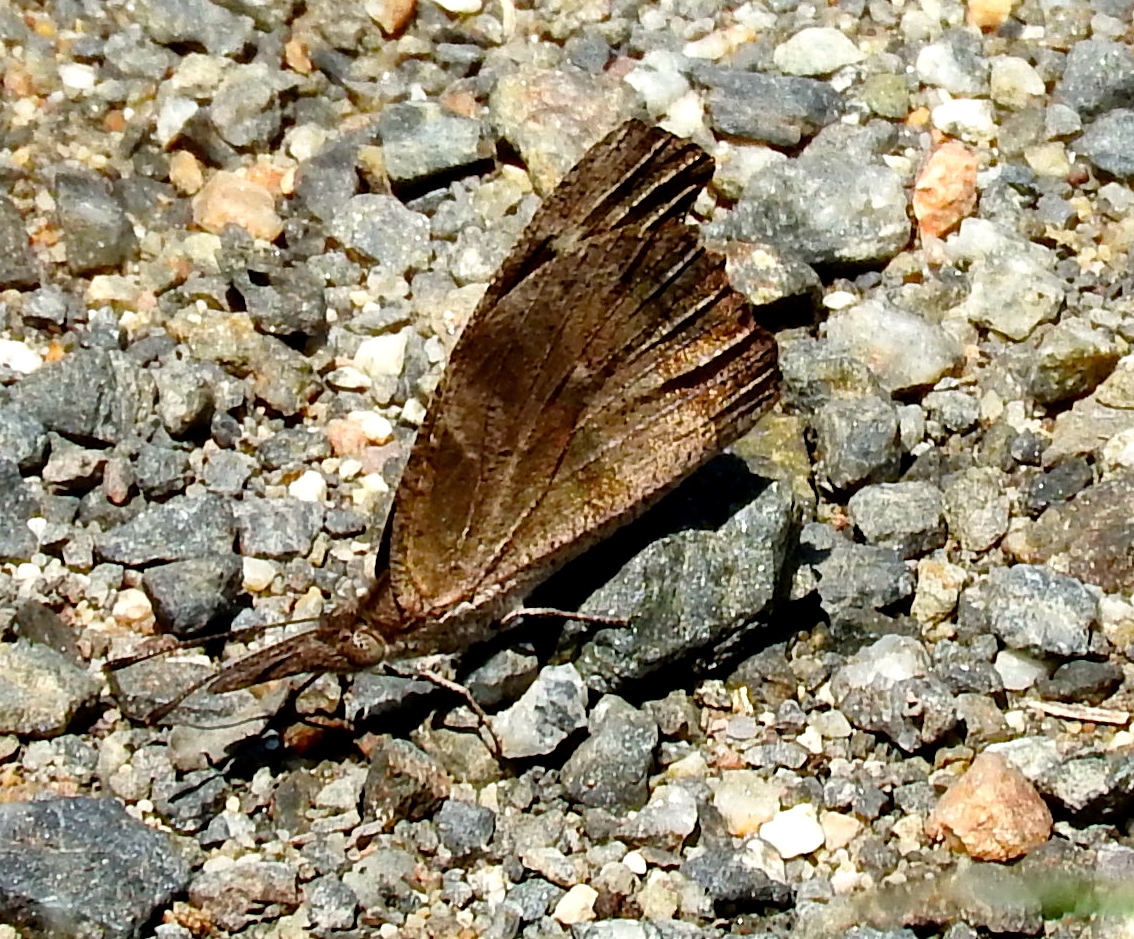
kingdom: Animalia
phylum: Arthropoda
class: Insecta
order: Lepidoptera
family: Nymphalidae
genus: Libytheana
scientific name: Libytheana carinenta
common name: American snout
